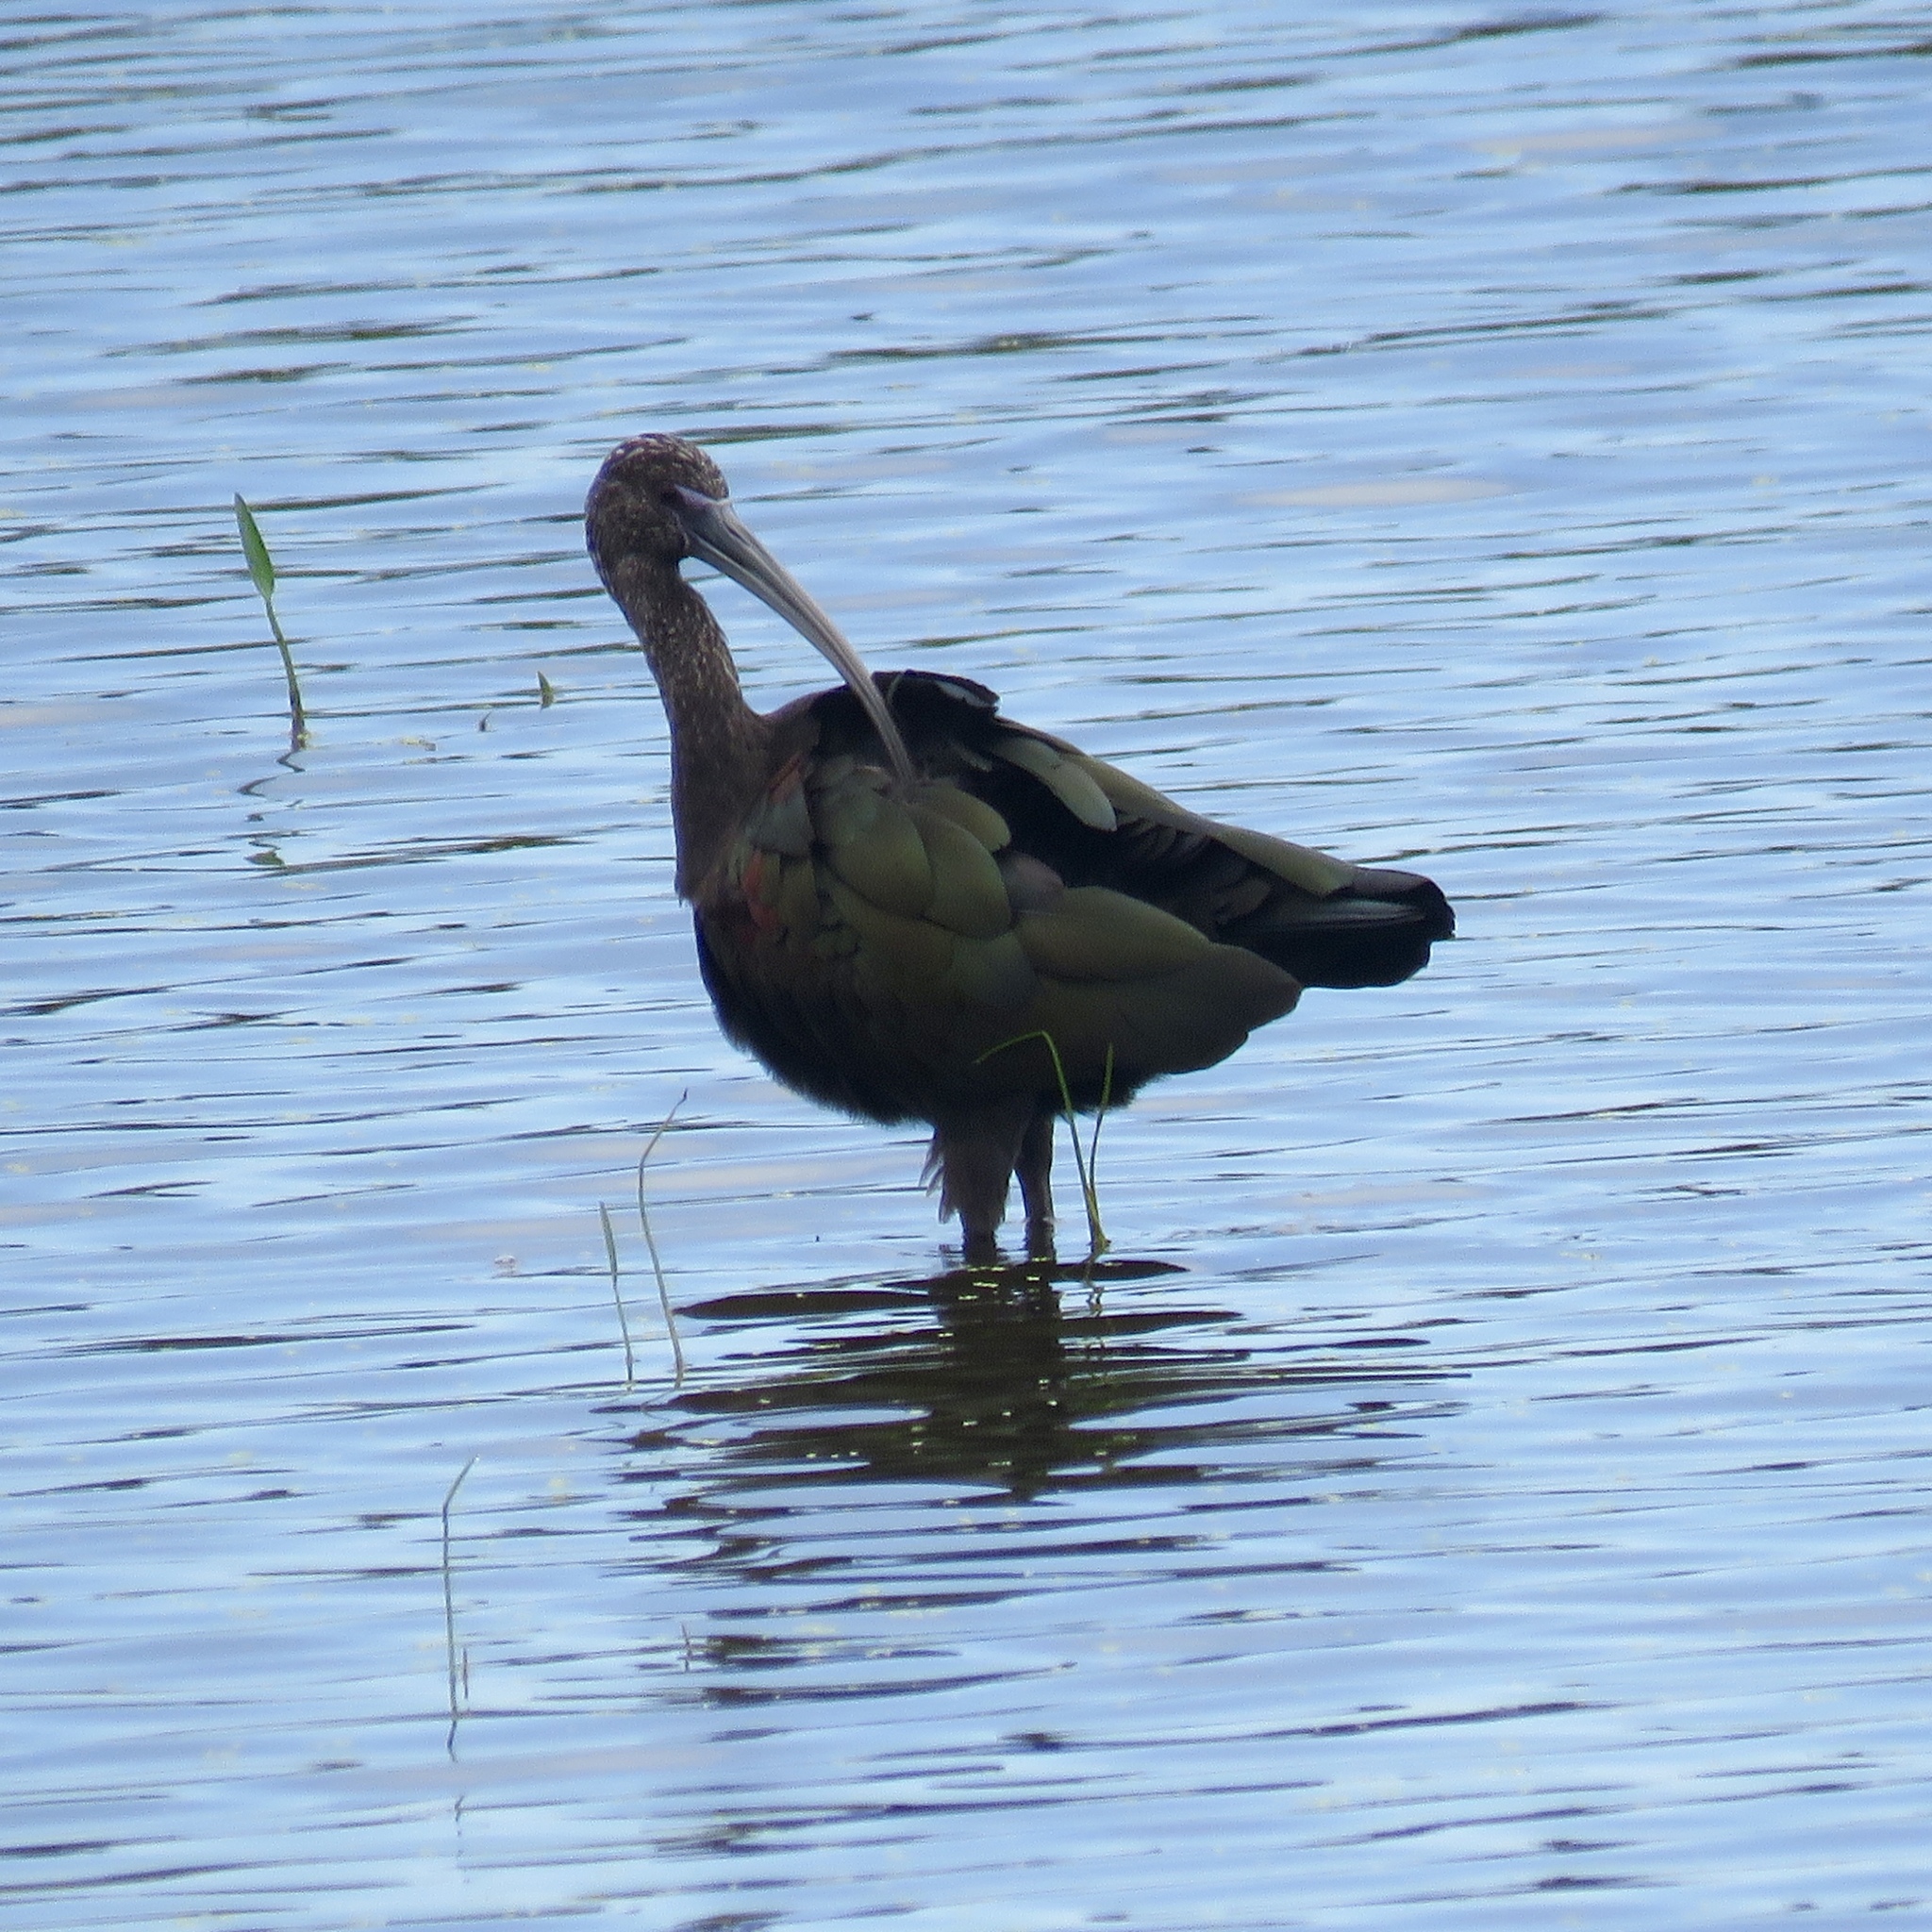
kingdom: Animalia
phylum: Chordata
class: Aves
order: Pelecaniformes
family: Threskiornithidae
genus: Plegadis
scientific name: Plegadis falcinellus
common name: Glossy ibis
